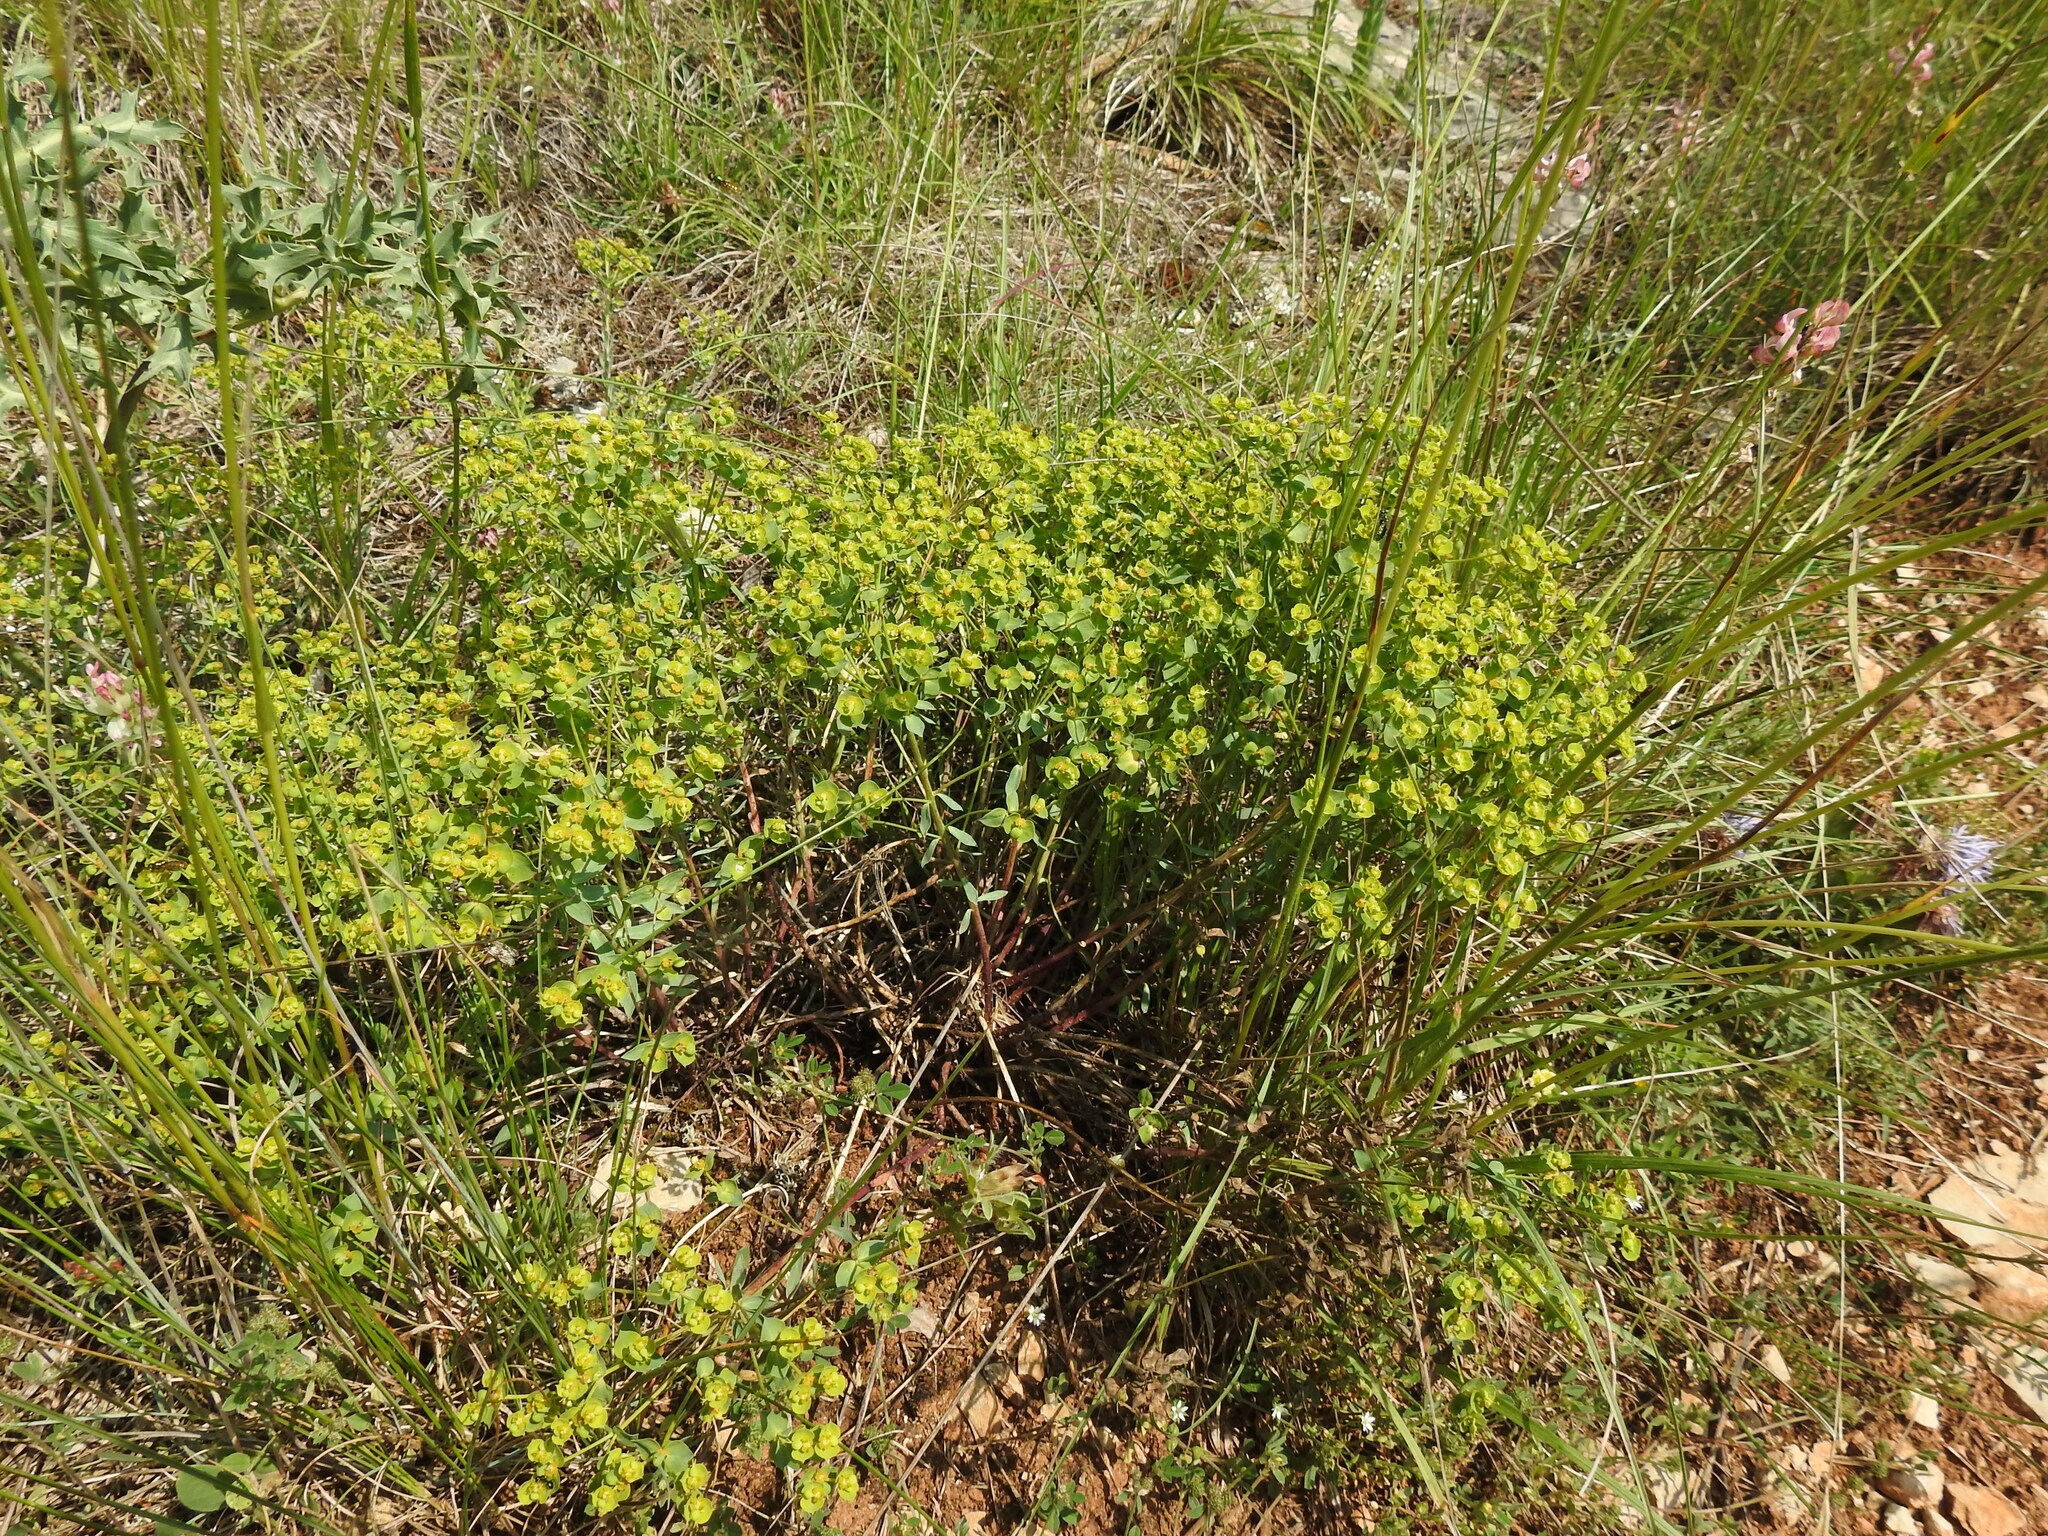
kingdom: Plantae
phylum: Tracheophyta
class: Magnoliopsida
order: Malpighiales
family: Euphorbiaceae
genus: Euphorbia
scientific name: Euphorbia seguieriana
